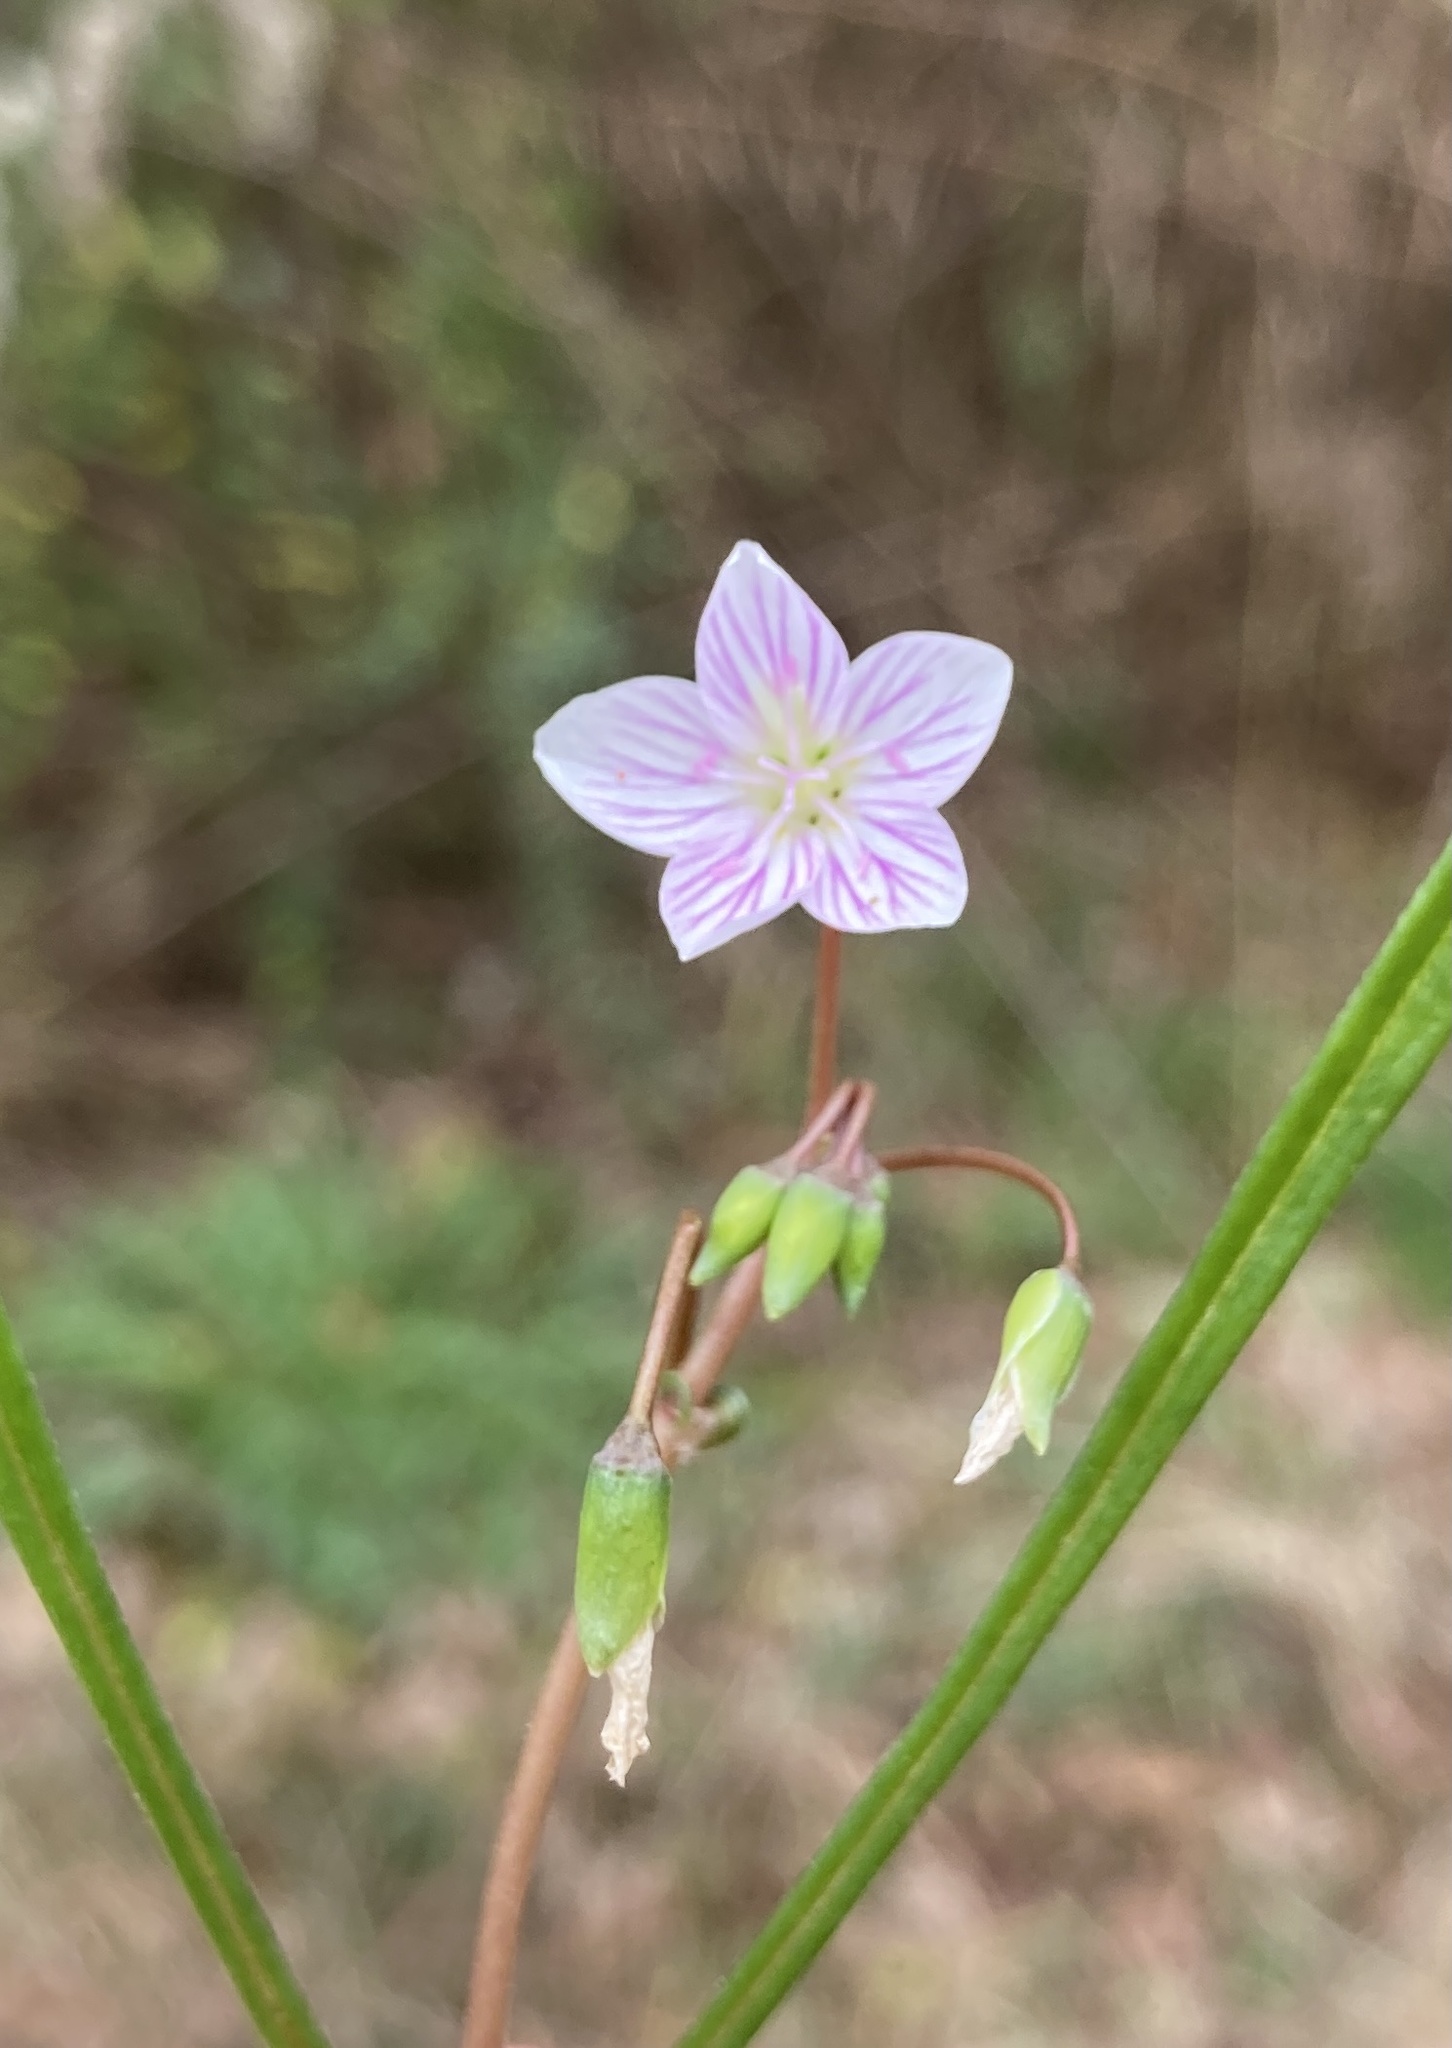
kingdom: Plantae
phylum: Tracheophyta
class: Magnoliopsida
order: Caryophyllales
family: Montiaceae
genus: Claytonia
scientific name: Claytonia virginica
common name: Virginia springbeauty
